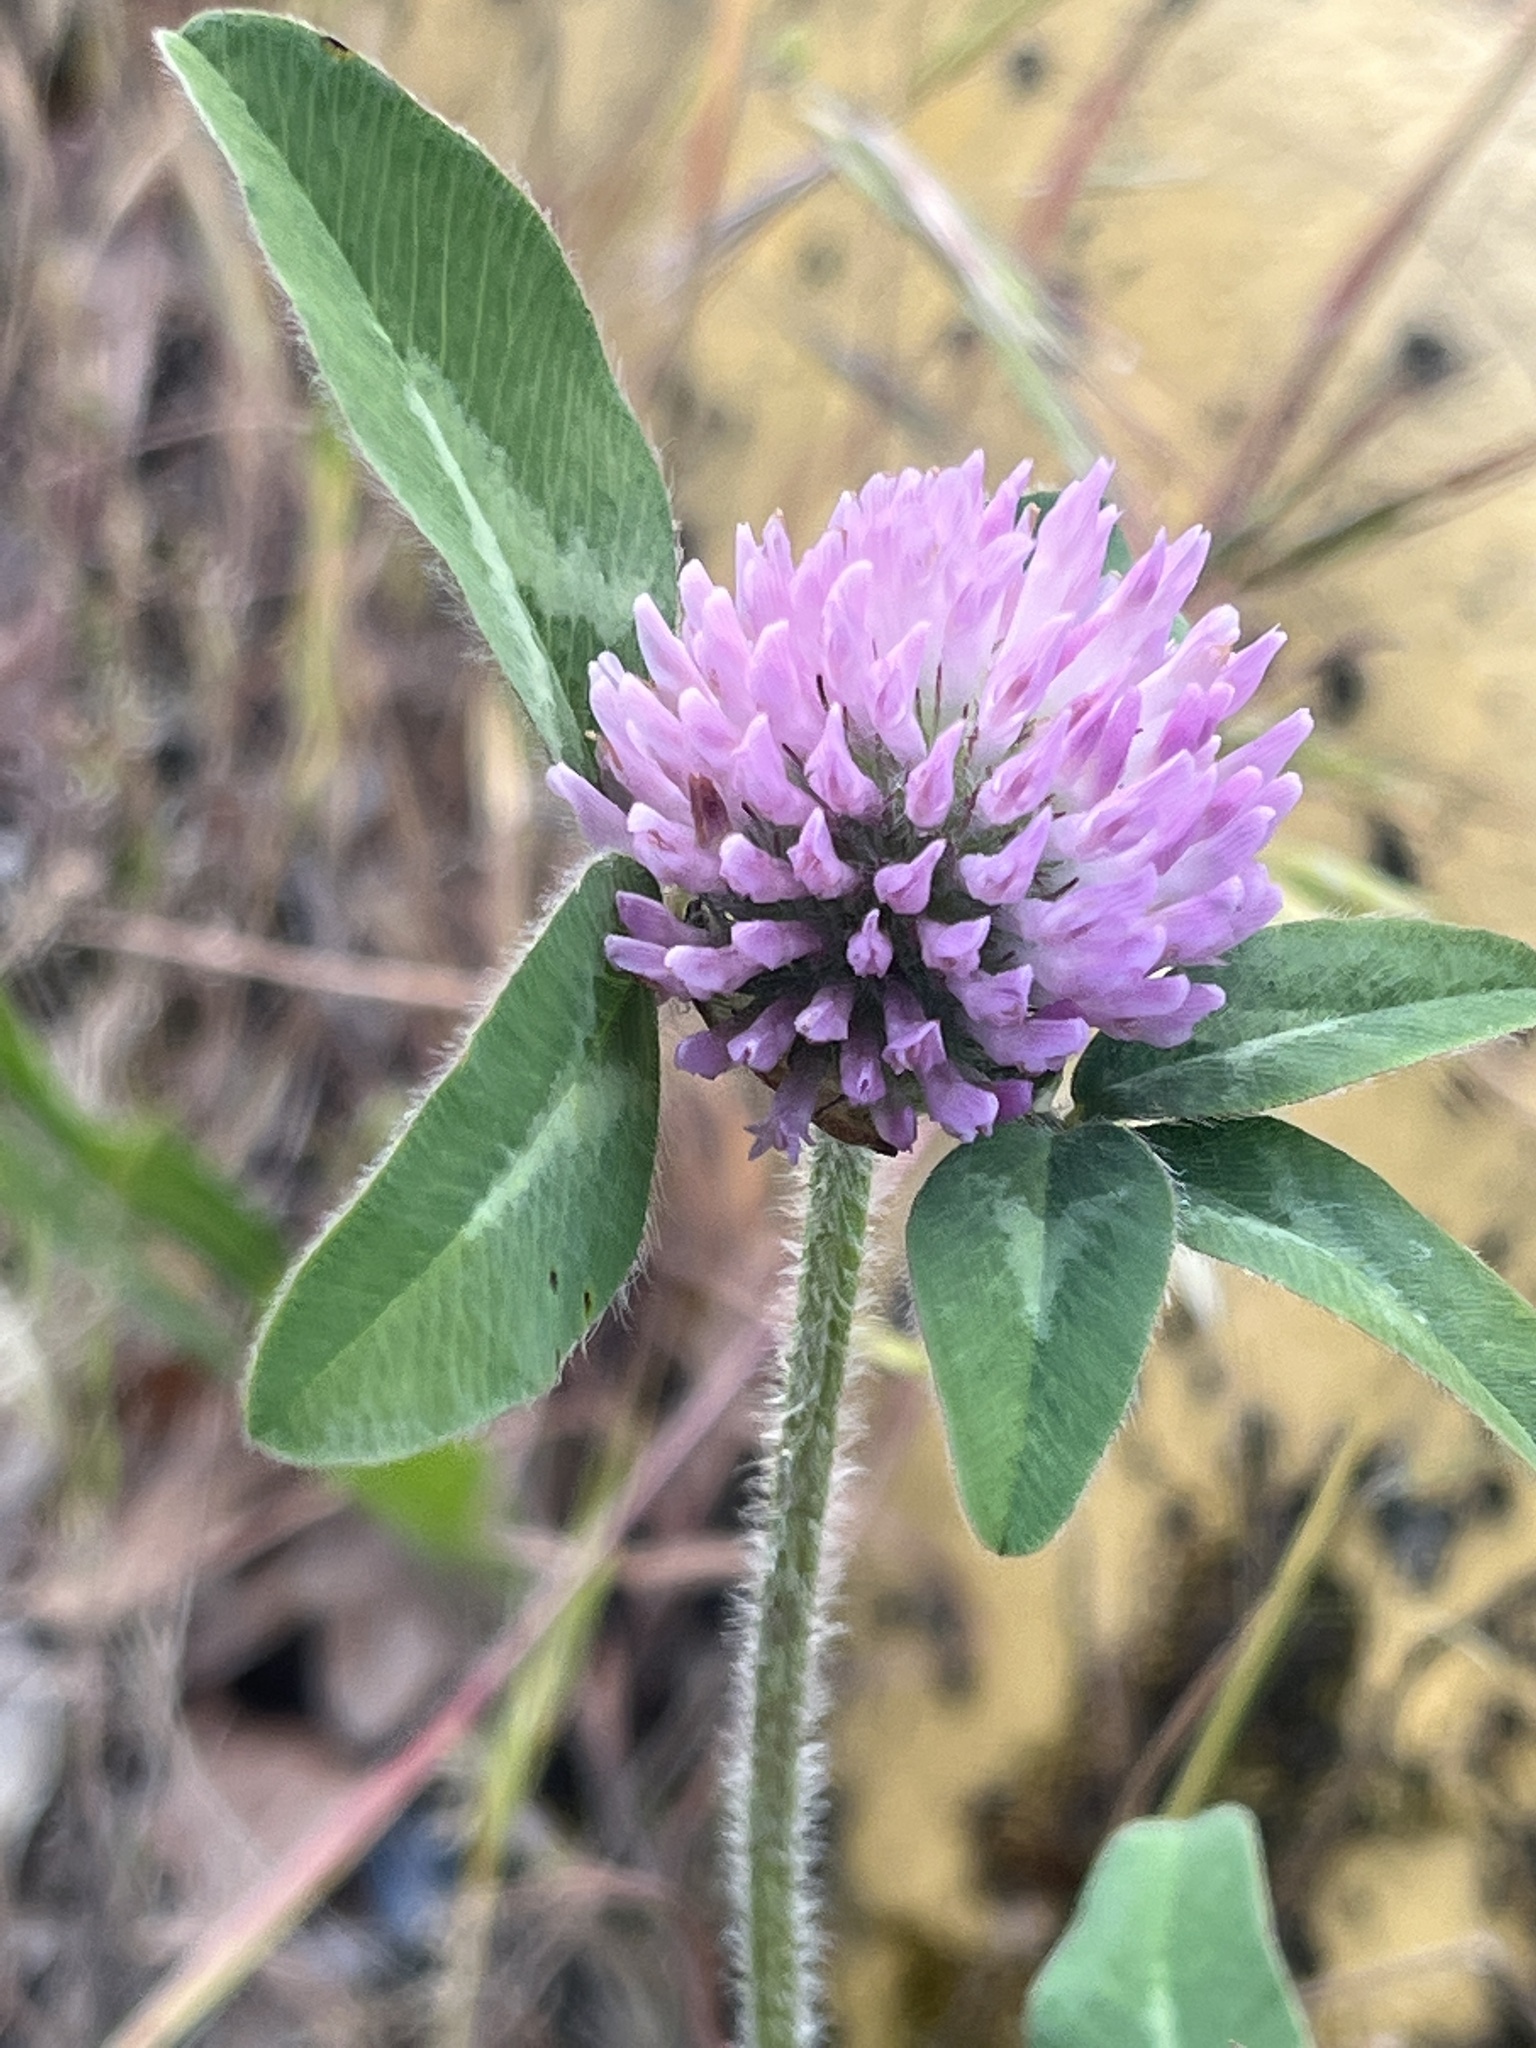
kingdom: Plantae
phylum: Tracheophyta
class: Magnoliopsida
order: Fabales
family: Fabaceae
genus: Trifolium
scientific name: Trifolium pratense
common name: Red clover
